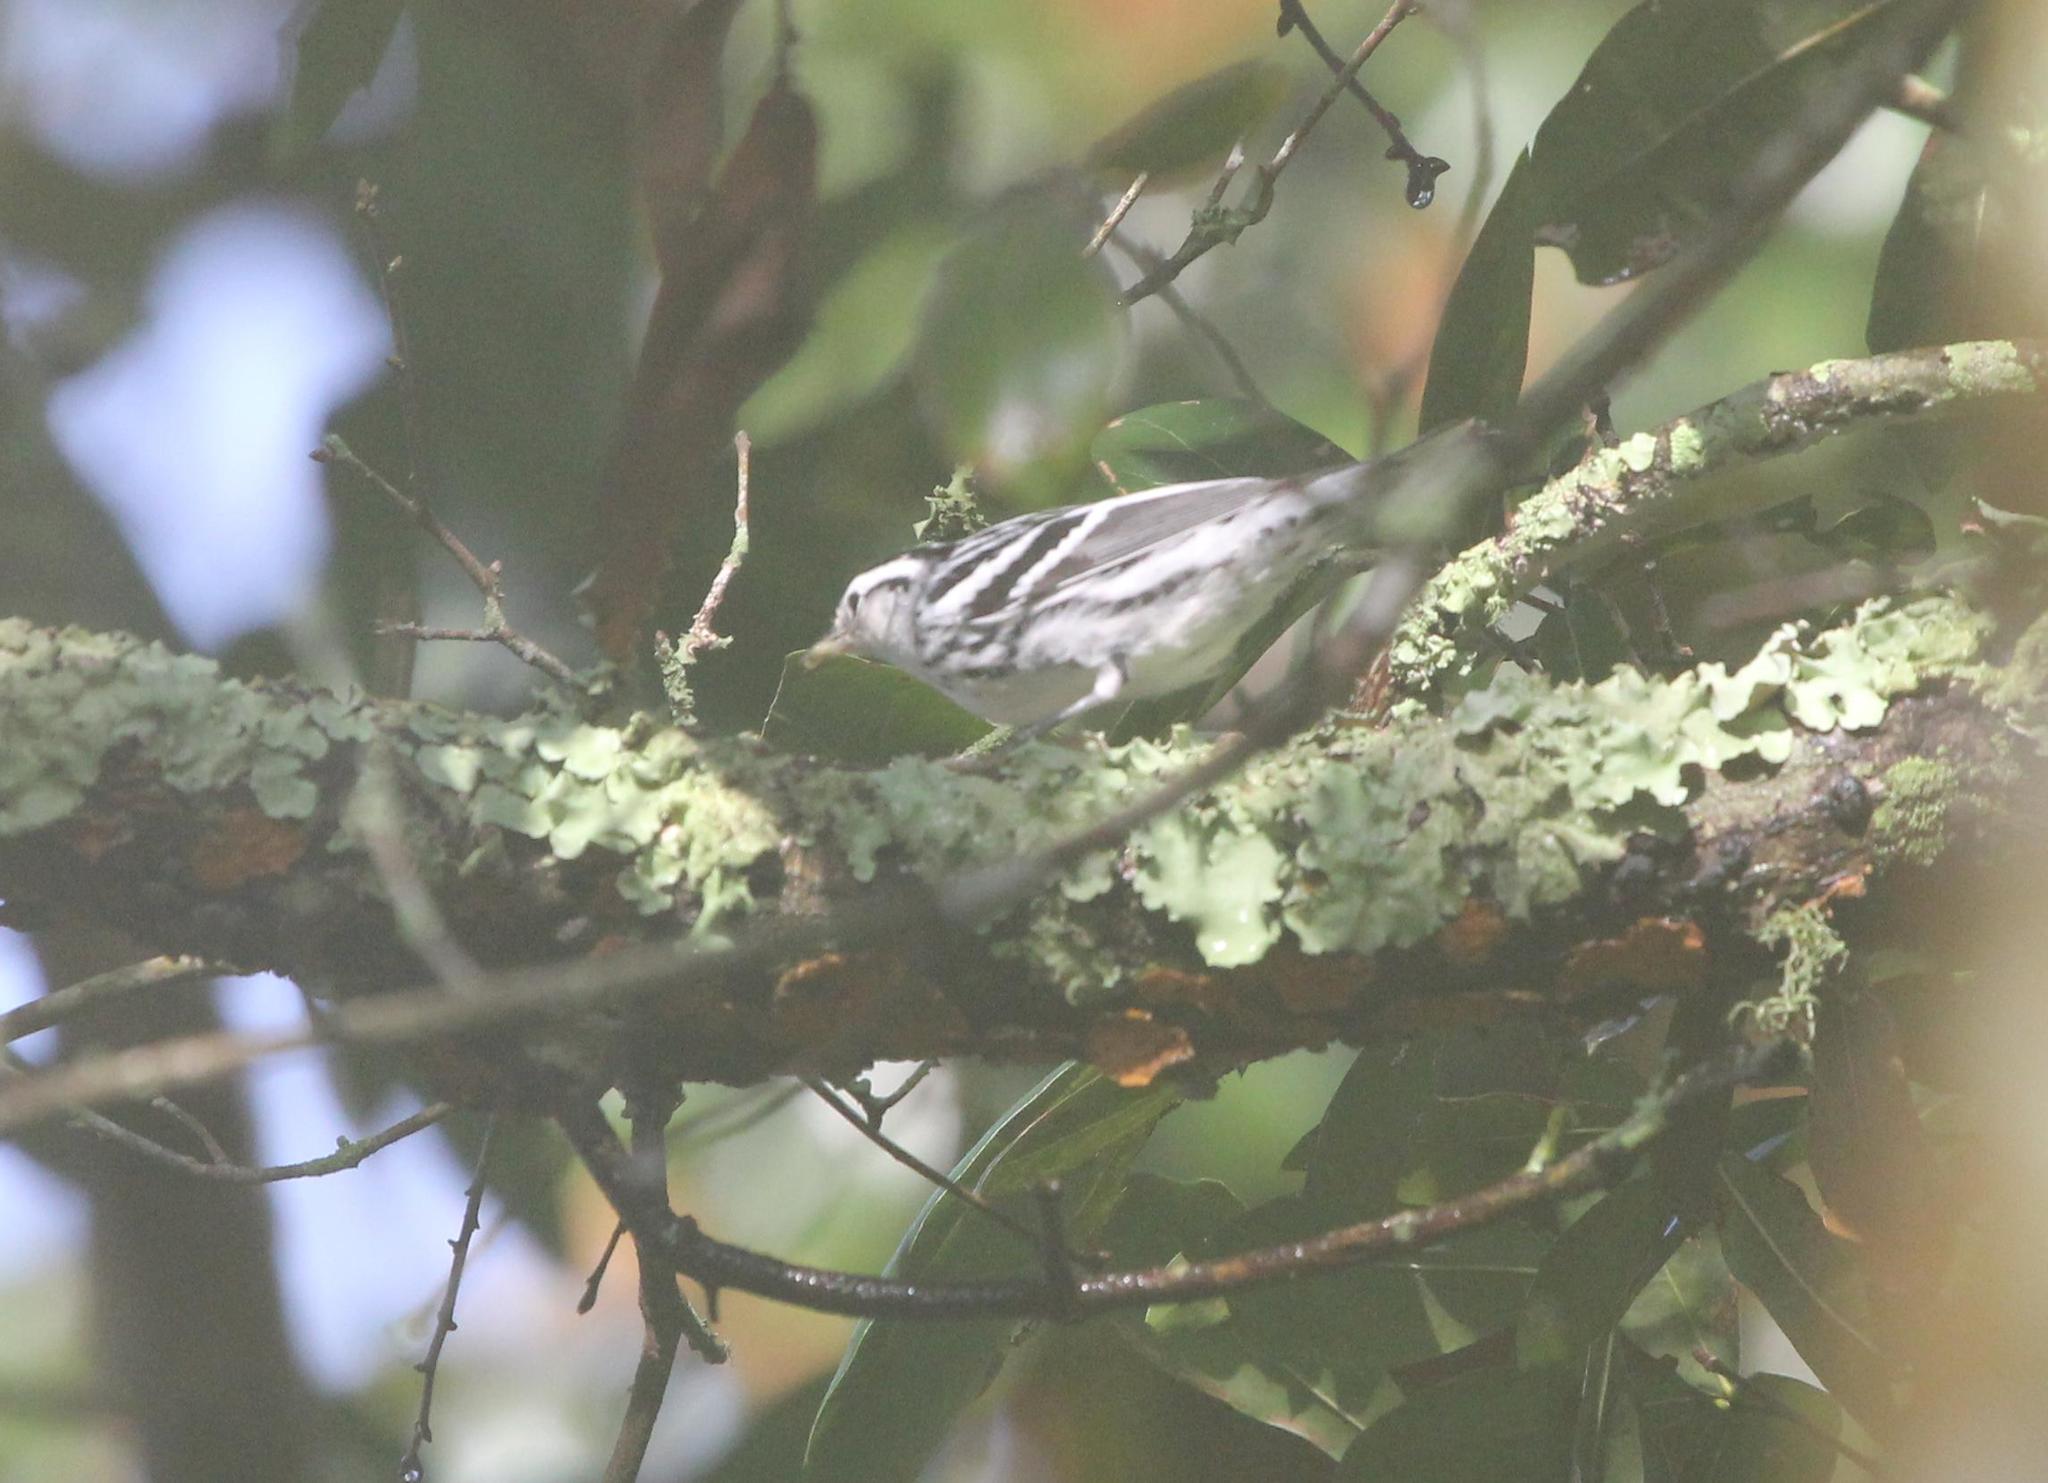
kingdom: Animalia
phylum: Chordata
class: Aves
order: Passeriformes
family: Parulidae
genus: Mniotilta
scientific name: Mniotilta varia
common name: Black-and-white warbler
